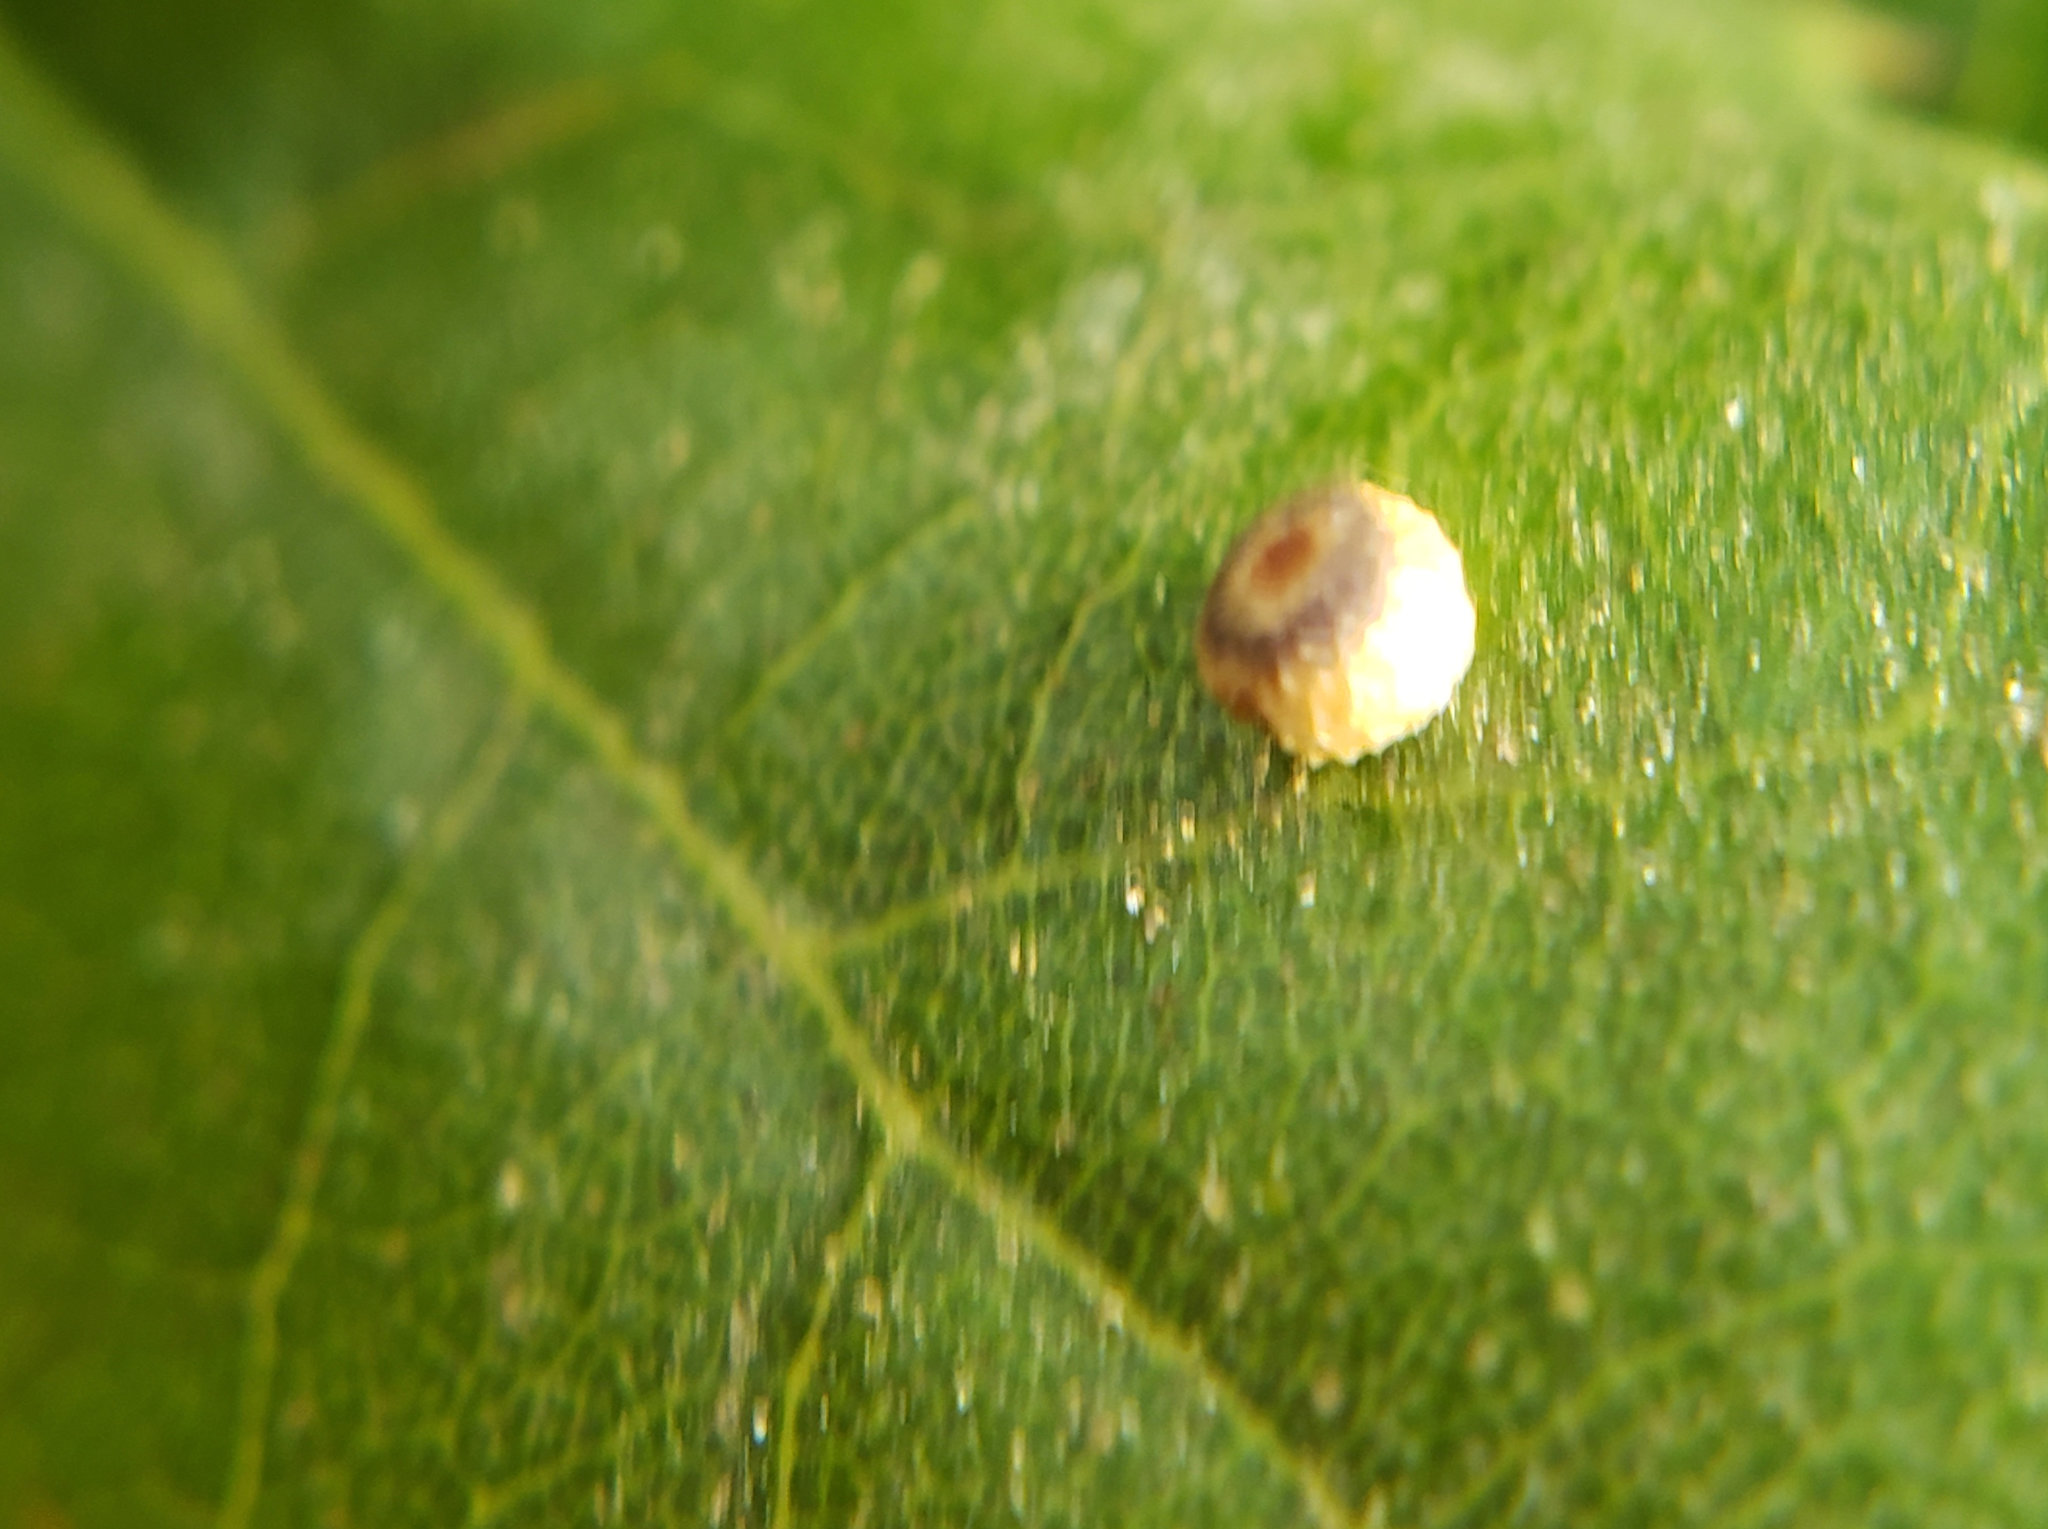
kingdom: Animalia
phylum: Arthropoda
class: Insecta
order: Hymenoptera
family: Cynipidae
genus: Dryocosmus
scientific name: Dryocosmus
